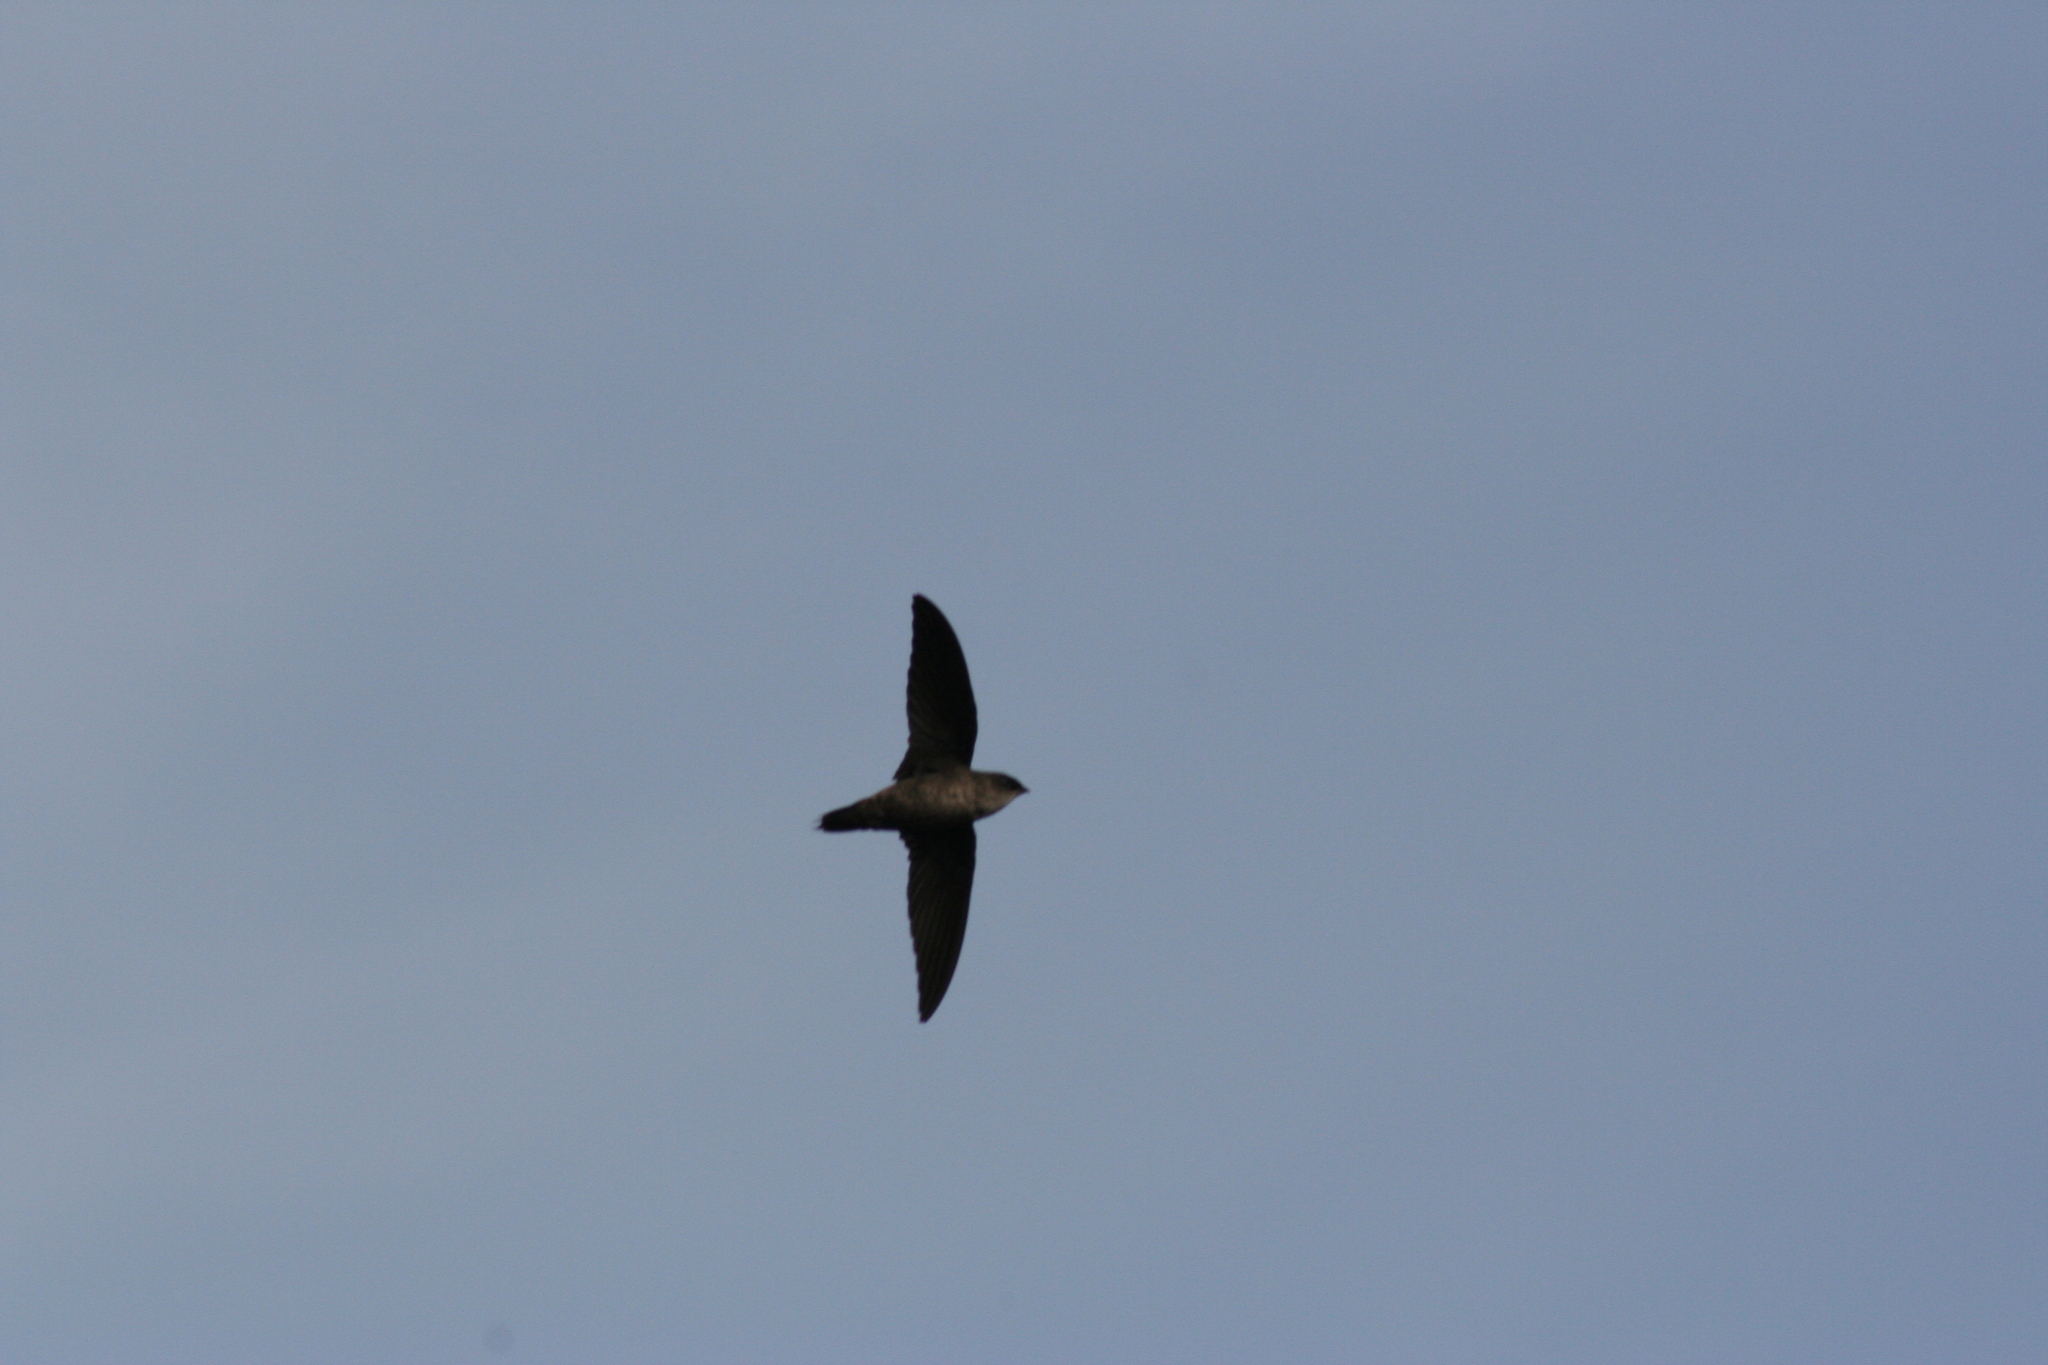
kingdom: Animalia
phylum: Chordata
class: Aves
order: Apodiformes
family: Apodidae
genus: Chaetura
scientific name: Chaetura vauxi
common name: Vaux's swift
